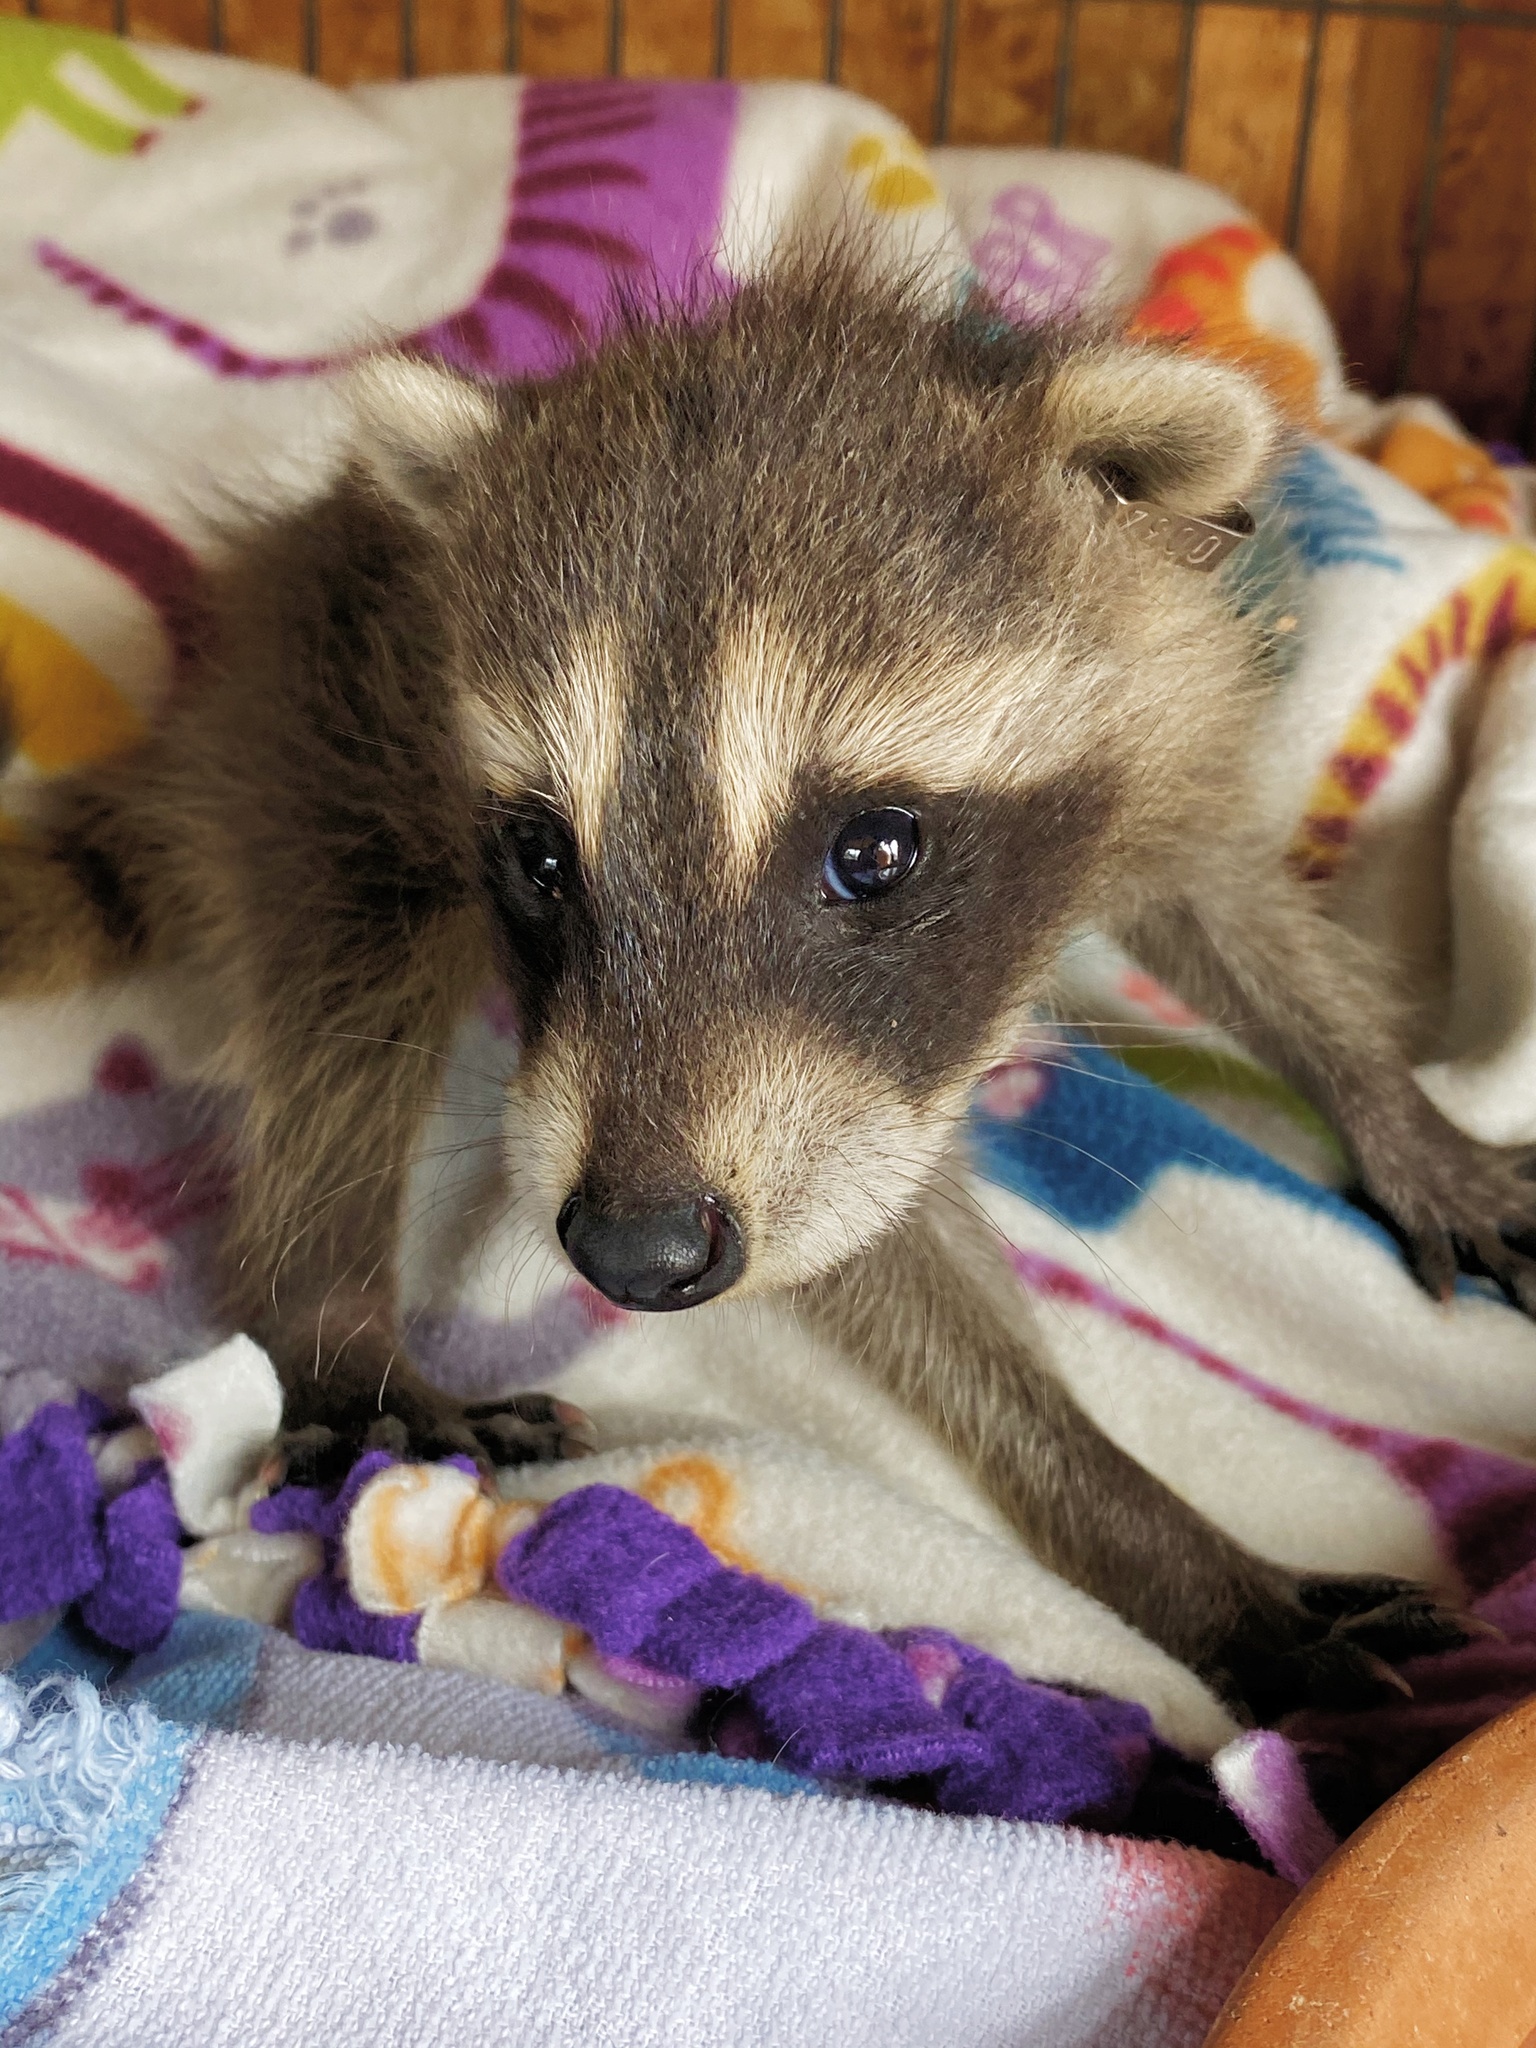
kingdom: Animalia
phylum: Chordata
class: Mammalia
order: Carnivora
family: Procyonidae
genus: Procyon
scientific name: Procyon lotor
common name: Raccoon
